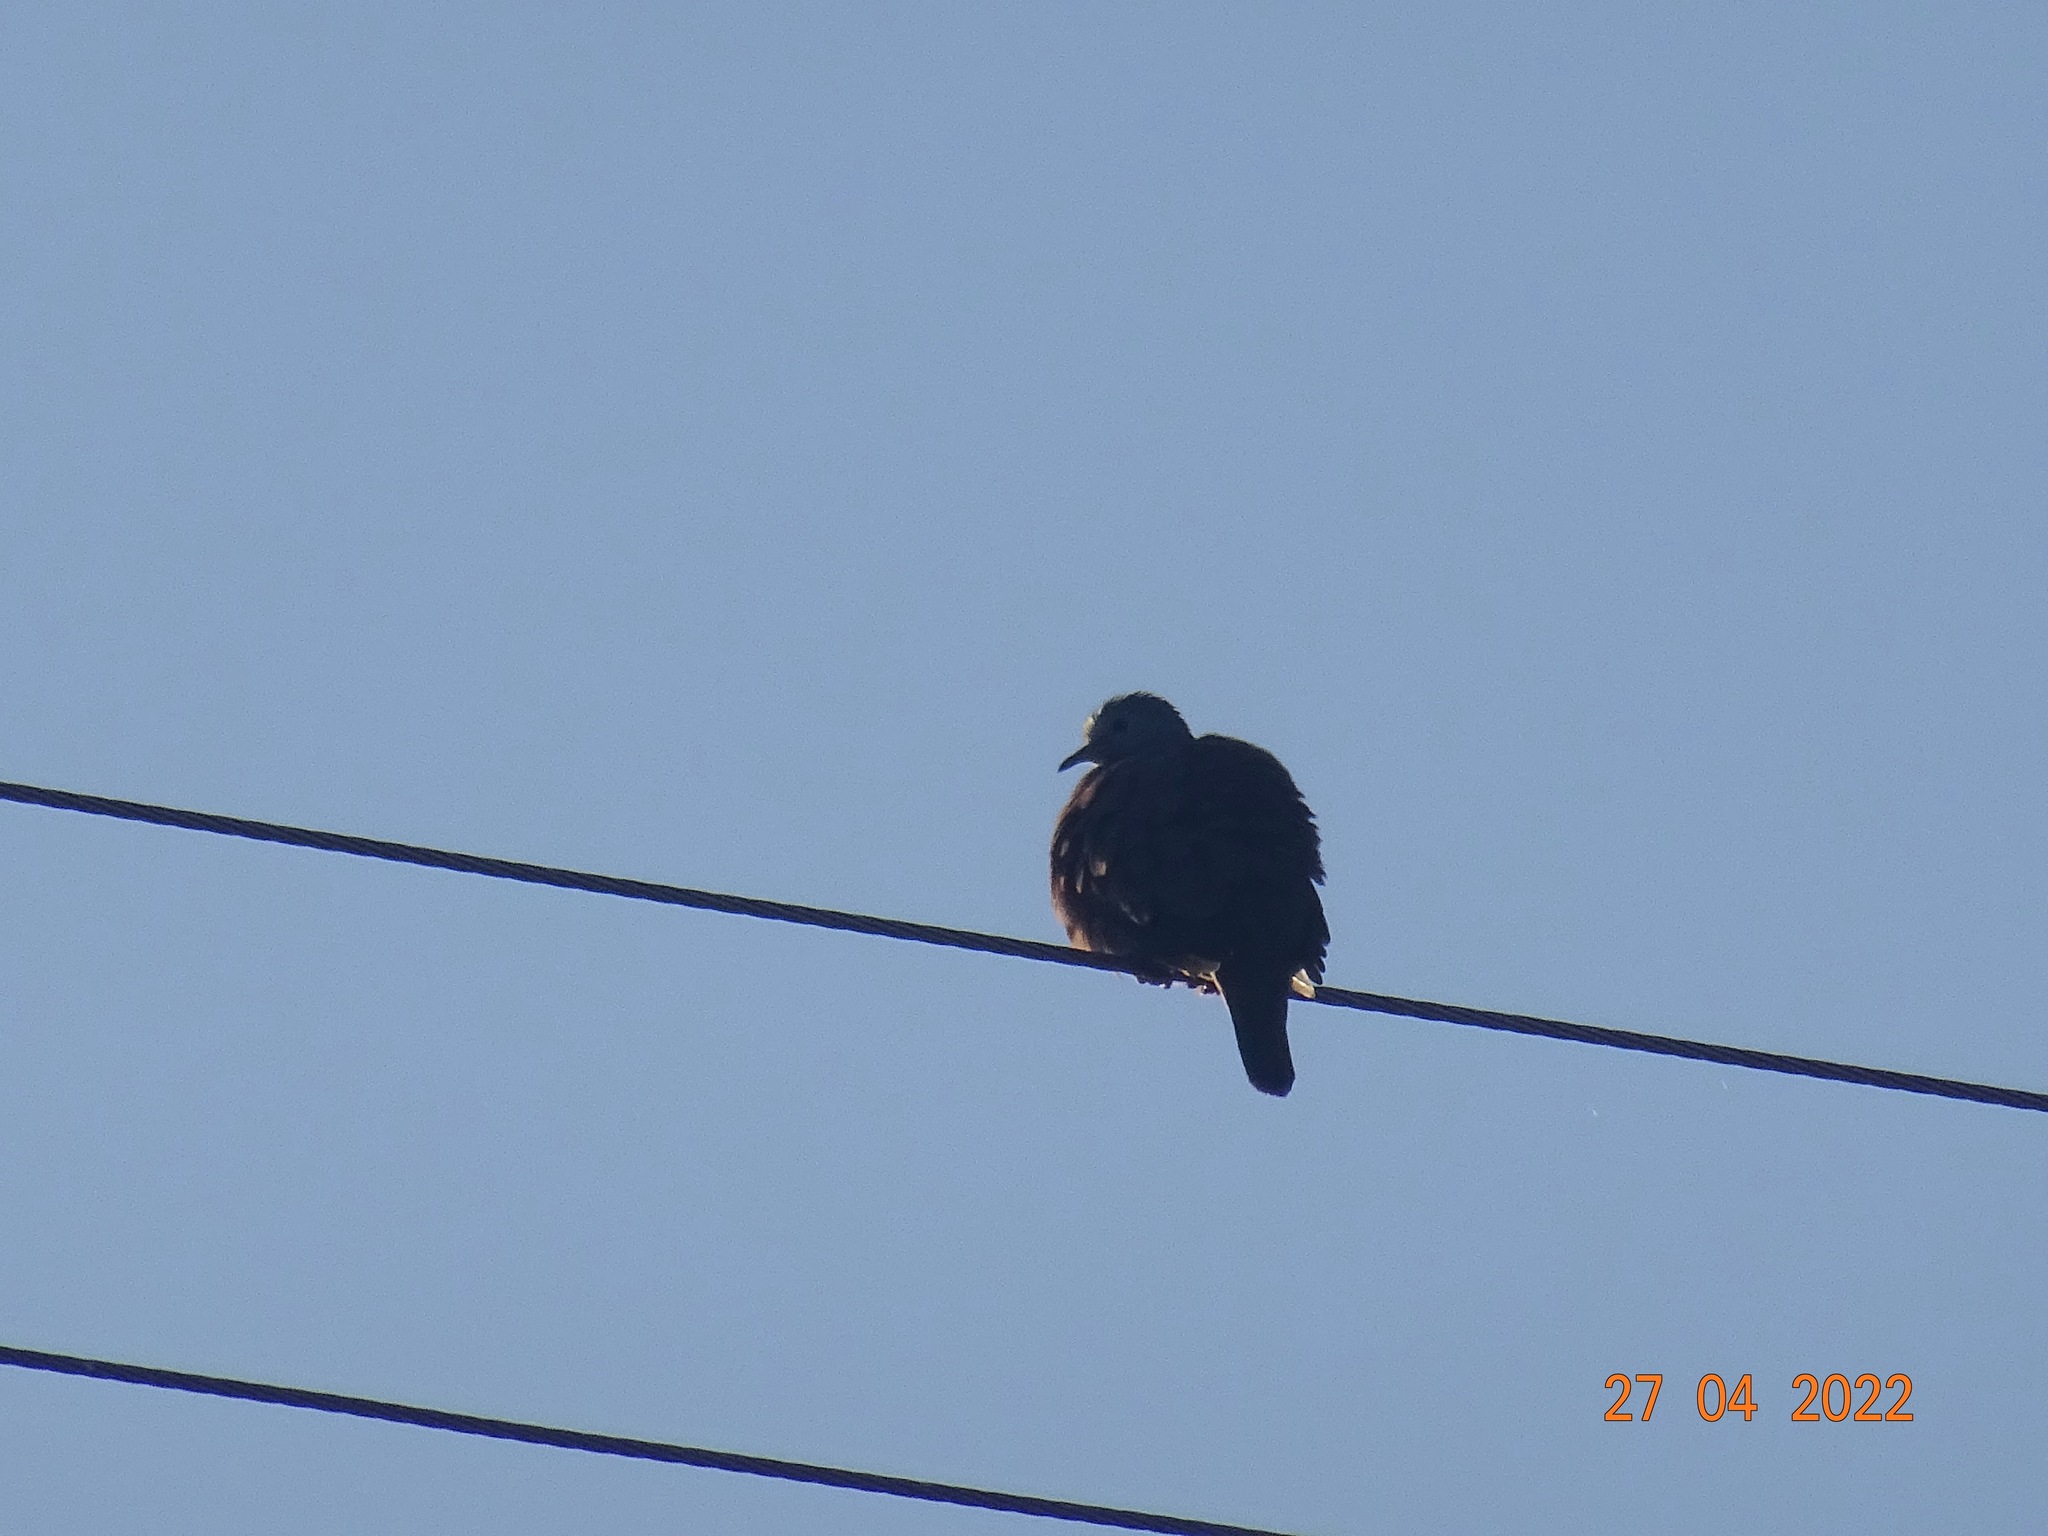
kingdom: Animalia
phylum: Chordata
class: Aves
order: Columbiformes
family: Columbidae
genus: Columbina
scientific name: Columbina talpacoti
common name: Ruddy ground dove
